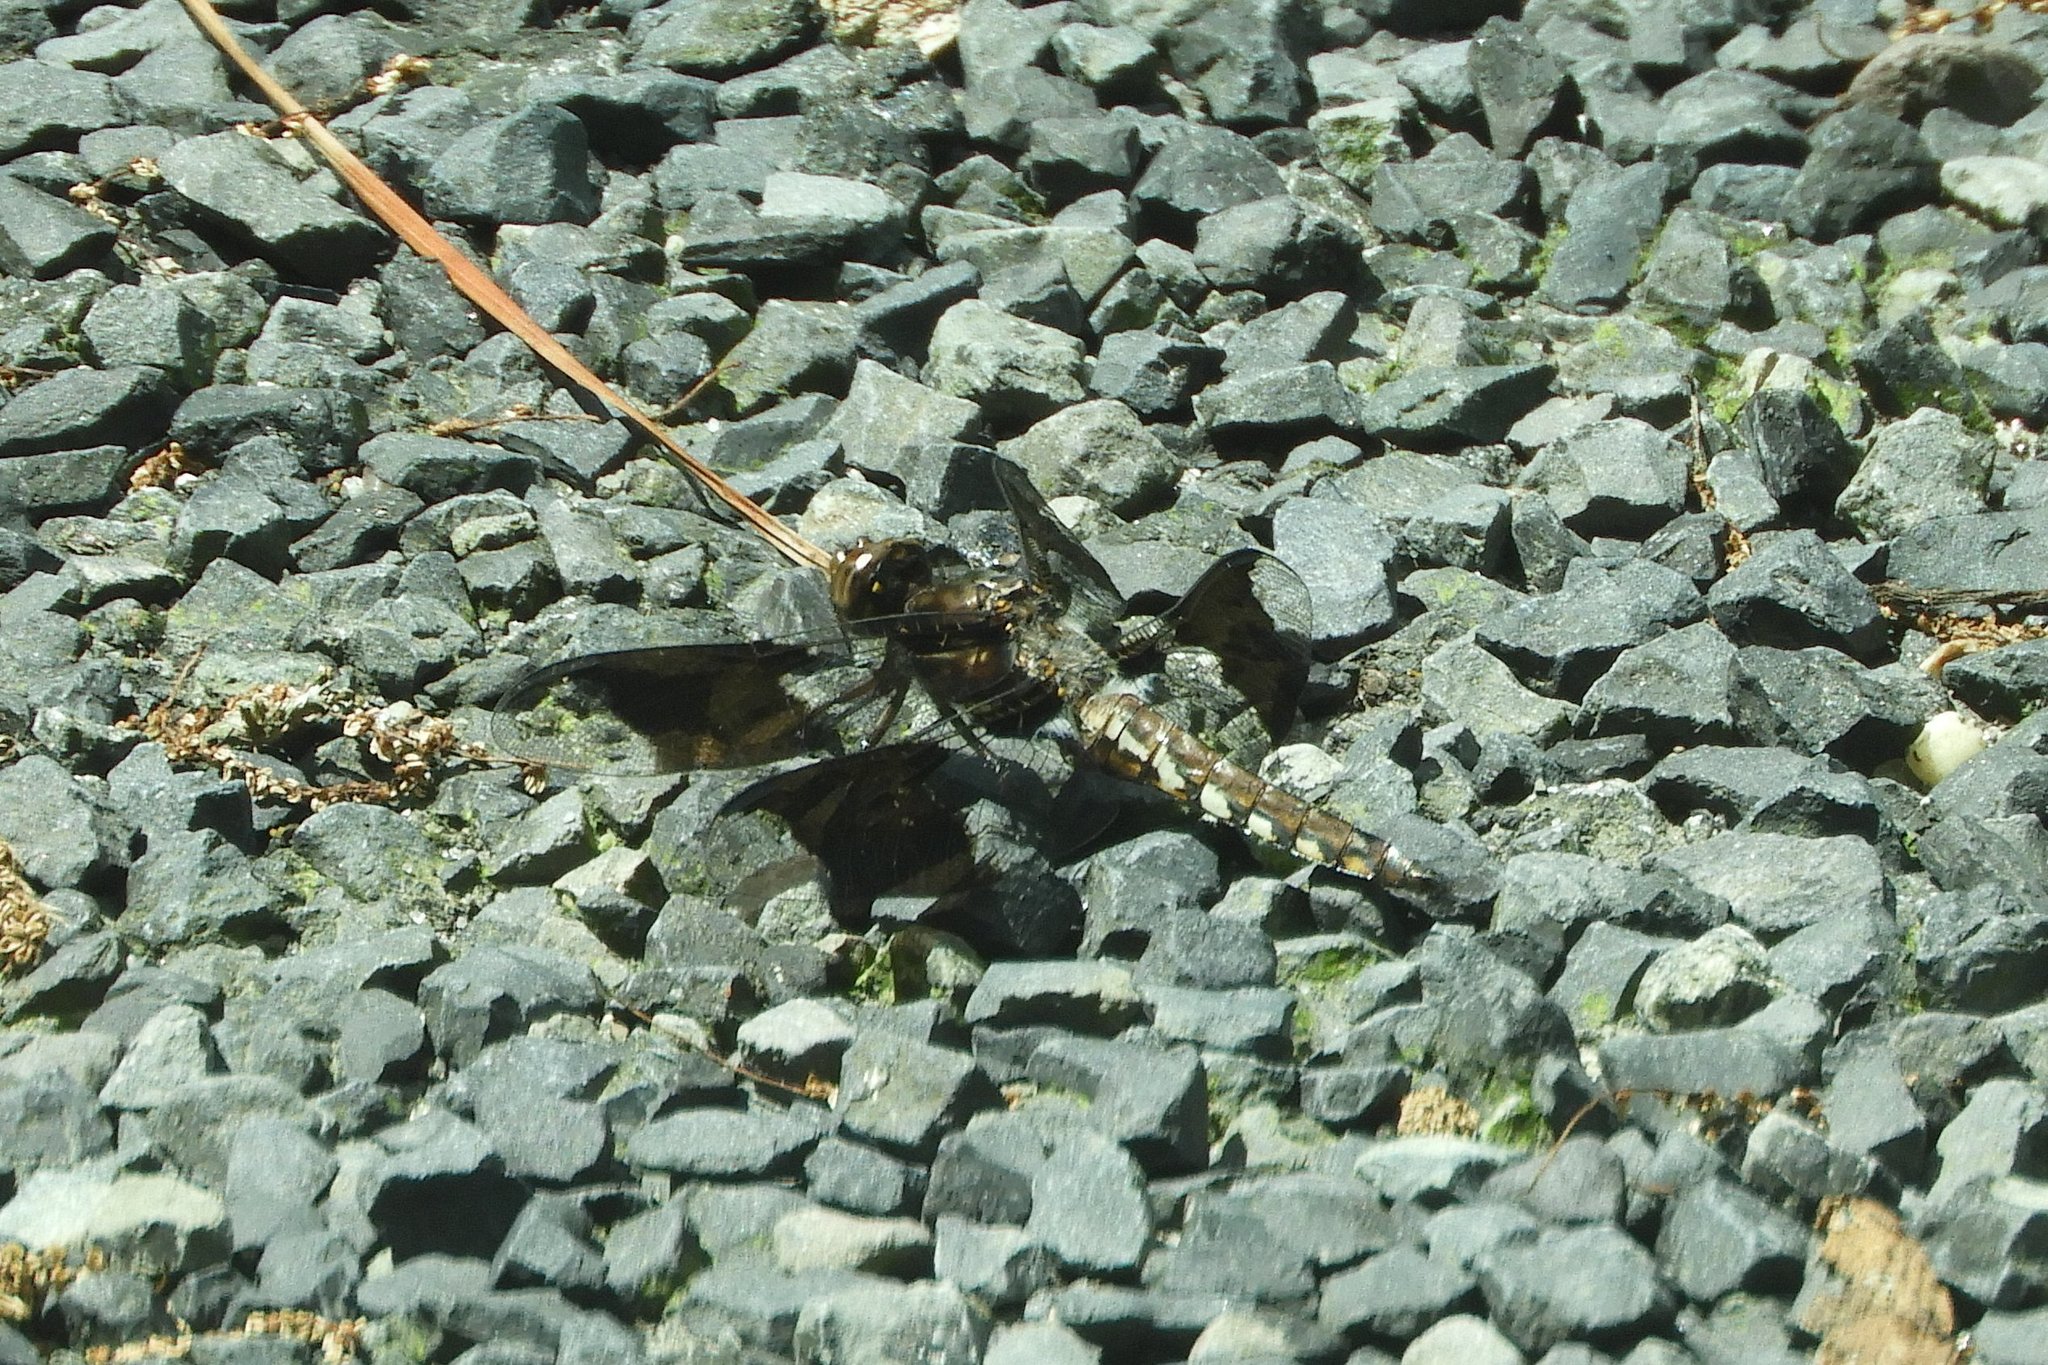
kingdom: Animalia
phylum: Arthropoda
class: Insecta
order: Odonata
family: Libellulidae
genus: Plathemis
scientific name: Plathemis lydia
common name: Common whitetail
